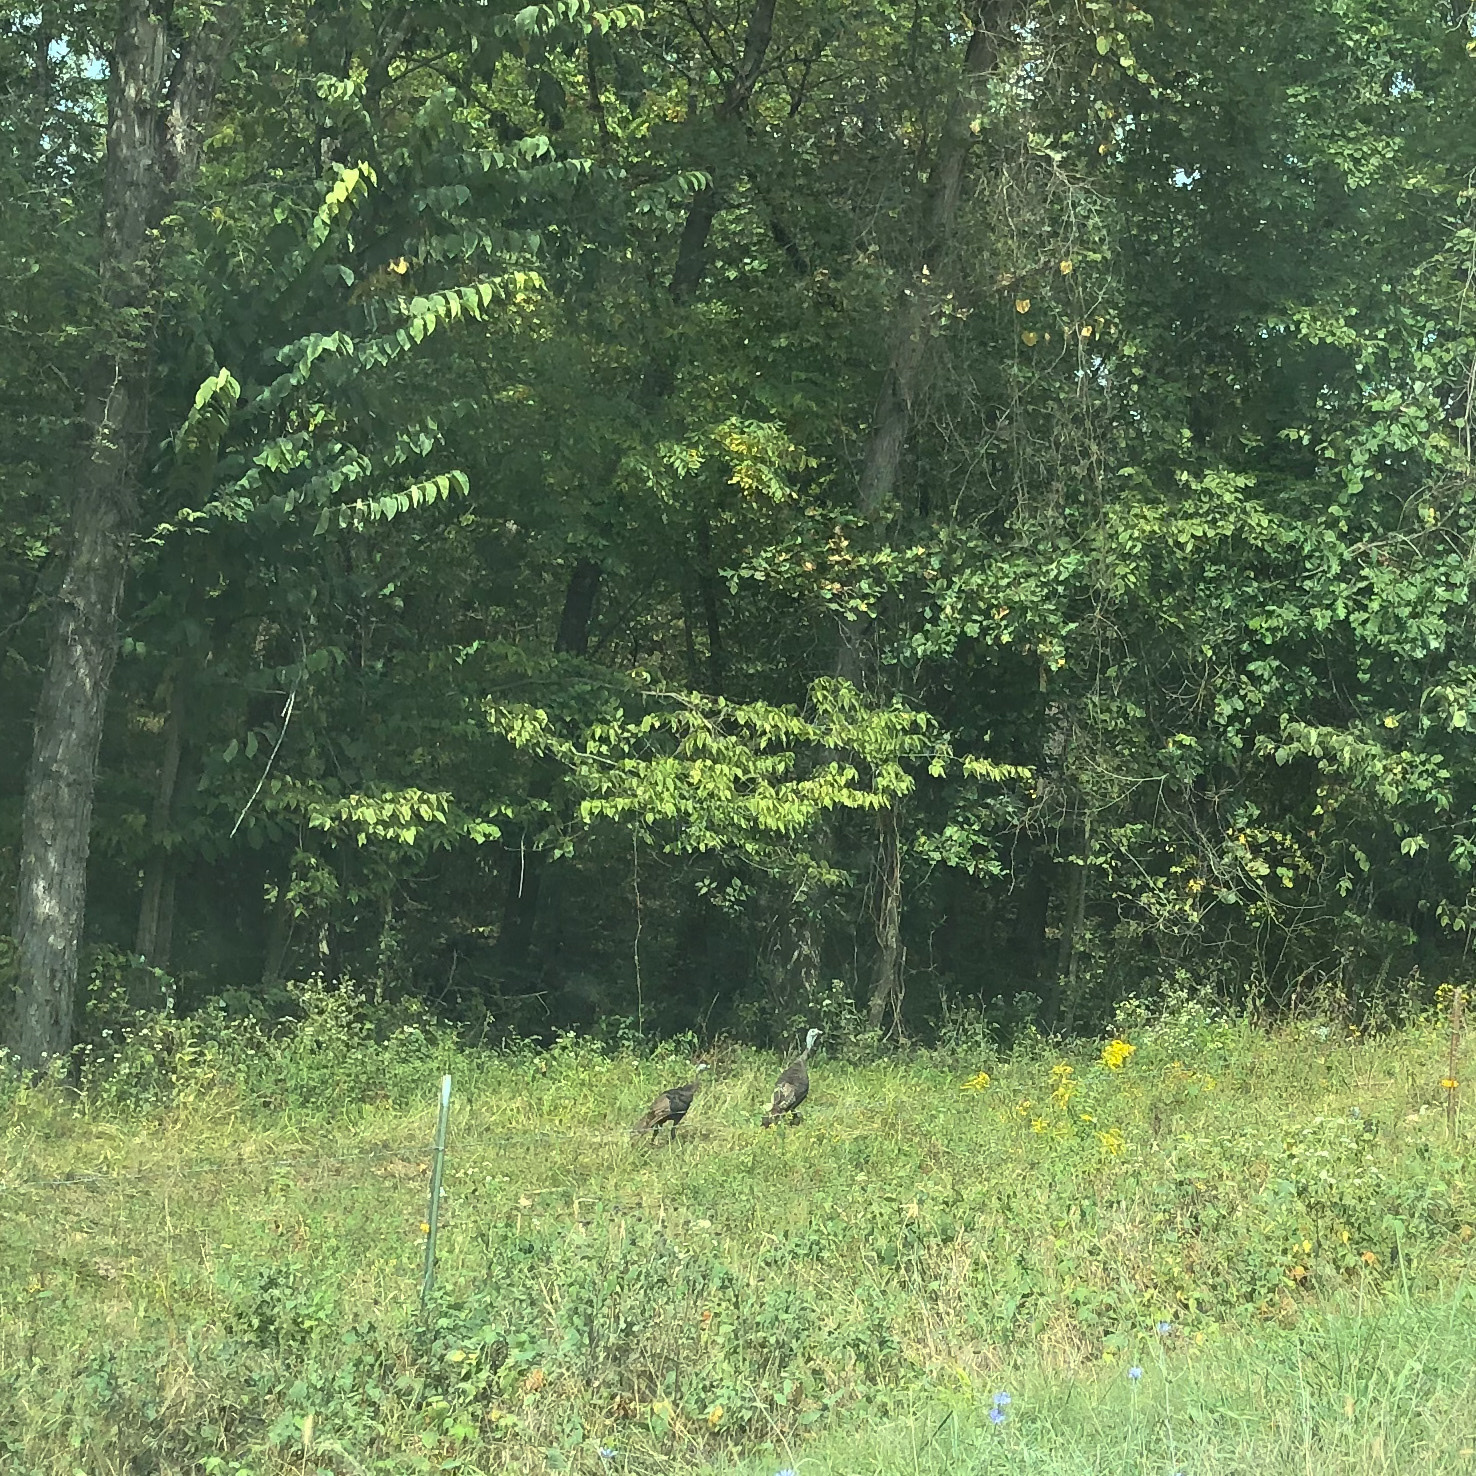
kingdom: Animalia
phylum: Chordata
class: Aves
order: Galliformes
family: Phasianidae
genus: Meleagris
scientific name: Meleagris gallopavo
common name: Wild turkey
